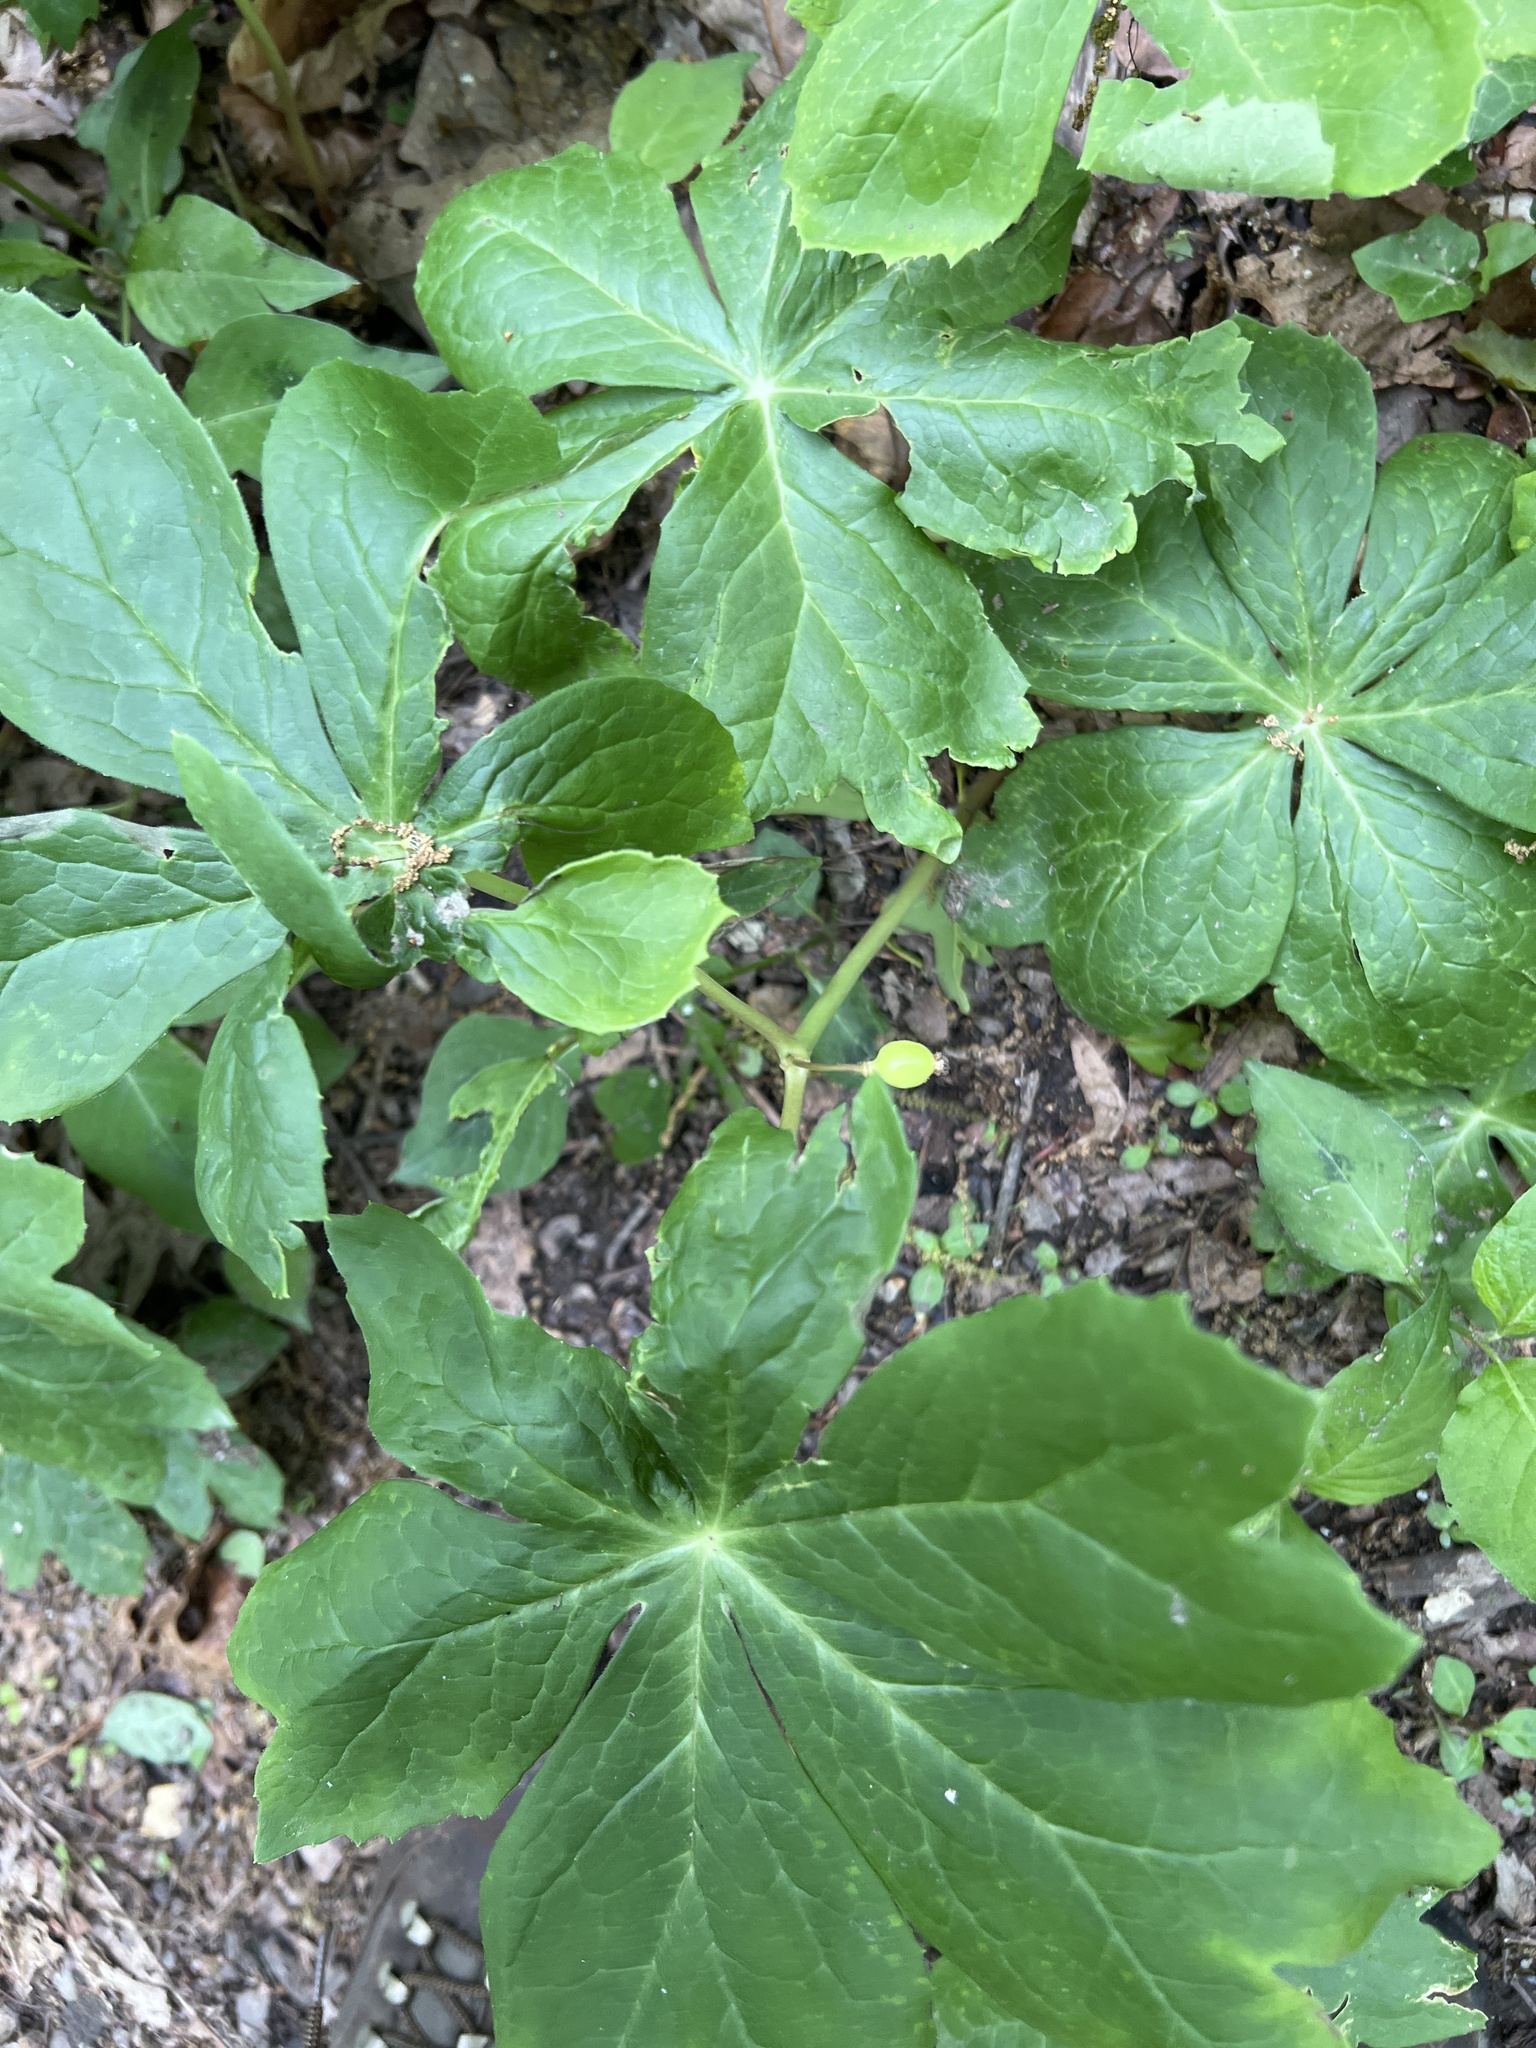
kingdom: Plantae
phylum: Tracheophyta
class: Magnoliopsida
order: Ranunculales
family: Berberidaceae
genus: Podophyllum
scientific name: Podophyllum peltatum
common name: Wild mandrake
